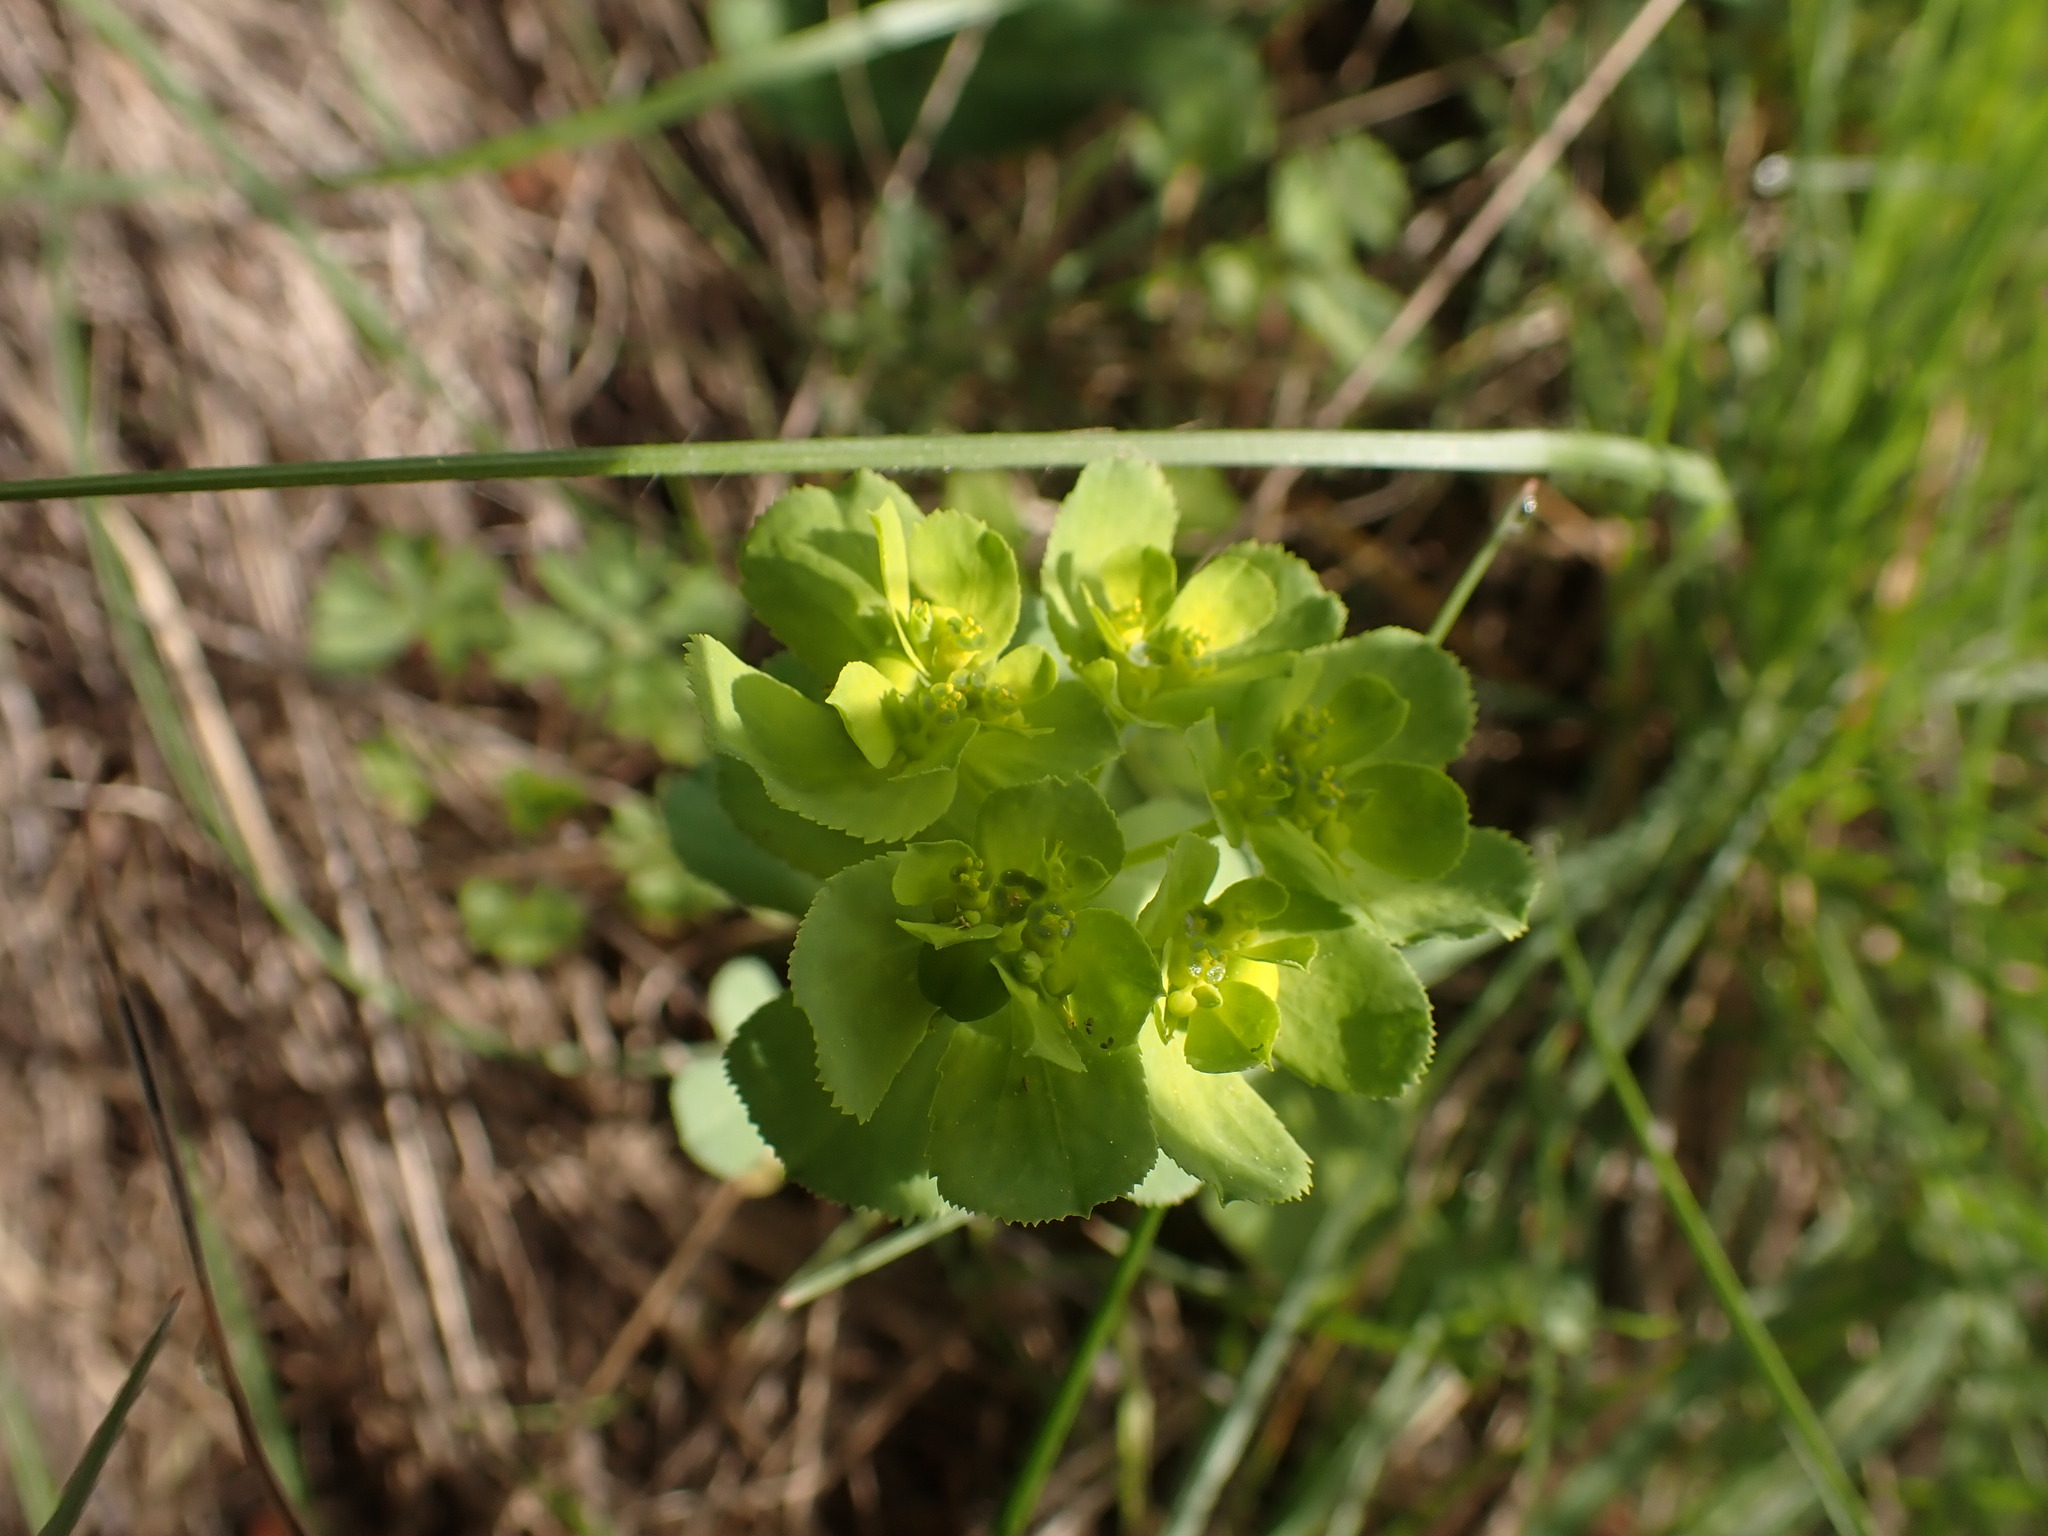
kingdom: Plantae
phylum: Tracheophyta
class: Magnoliopsida
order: Malpighiales
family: Euphorbiaceae
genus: Euphorbia
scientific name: Euphorbia helioscopia
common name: Sun spurge
